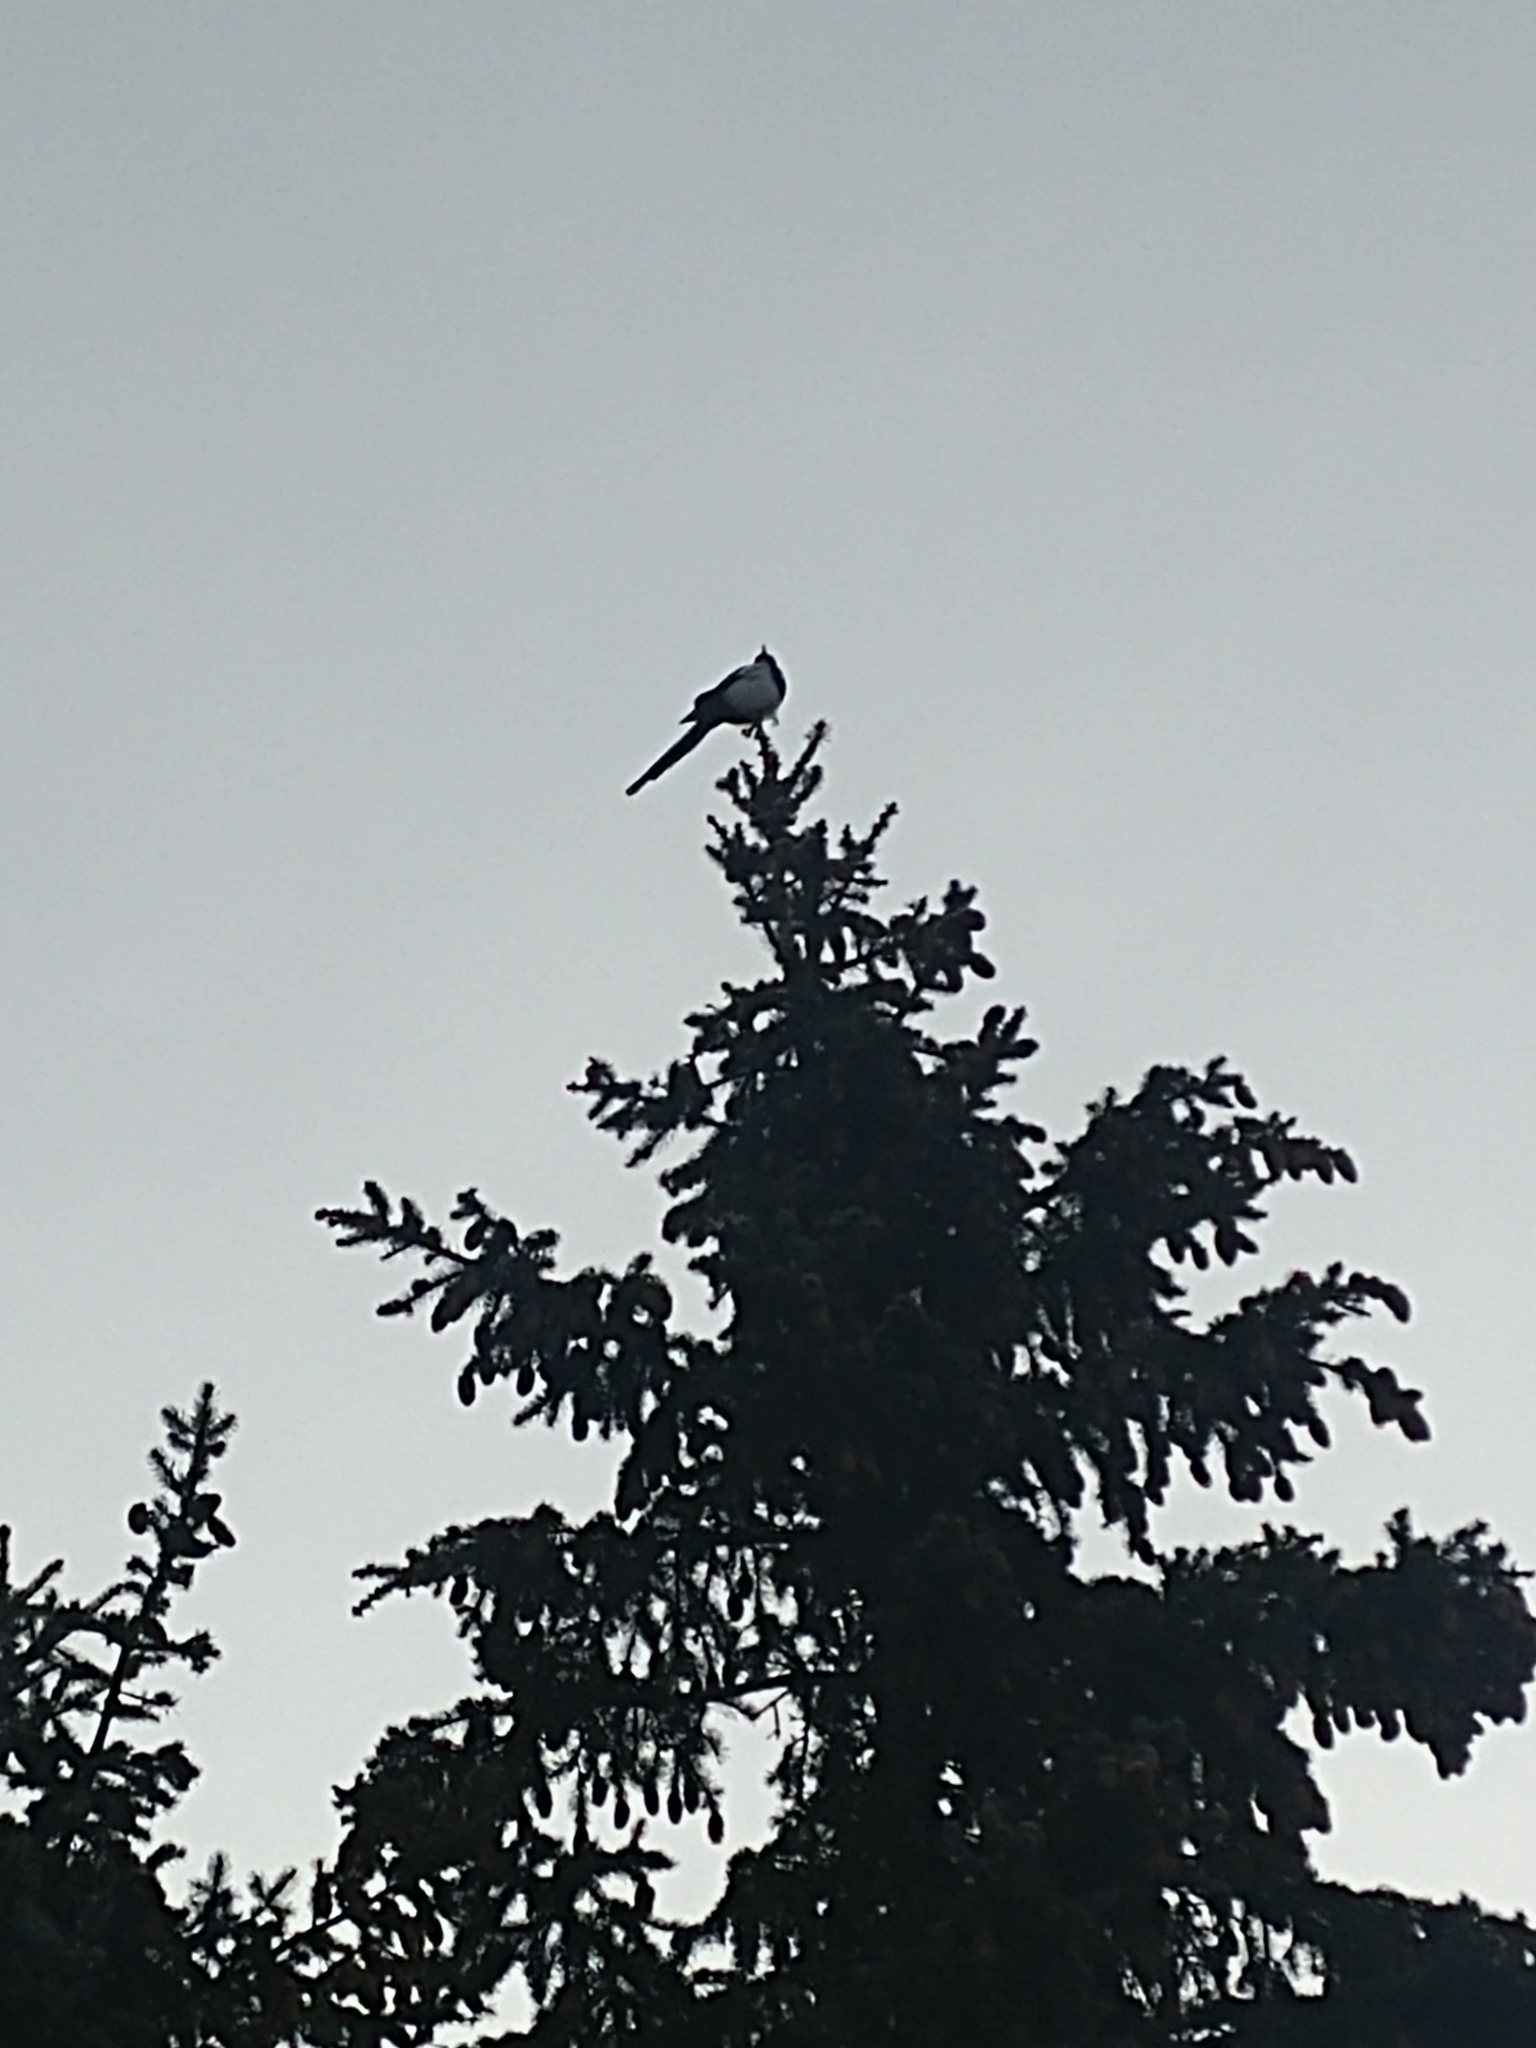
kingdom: Animalia
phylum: Chordata
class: Aves
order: Passeriformes
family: Corvidae
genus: Pica
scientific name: Pica hudsonia
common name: Black-billed magpie
